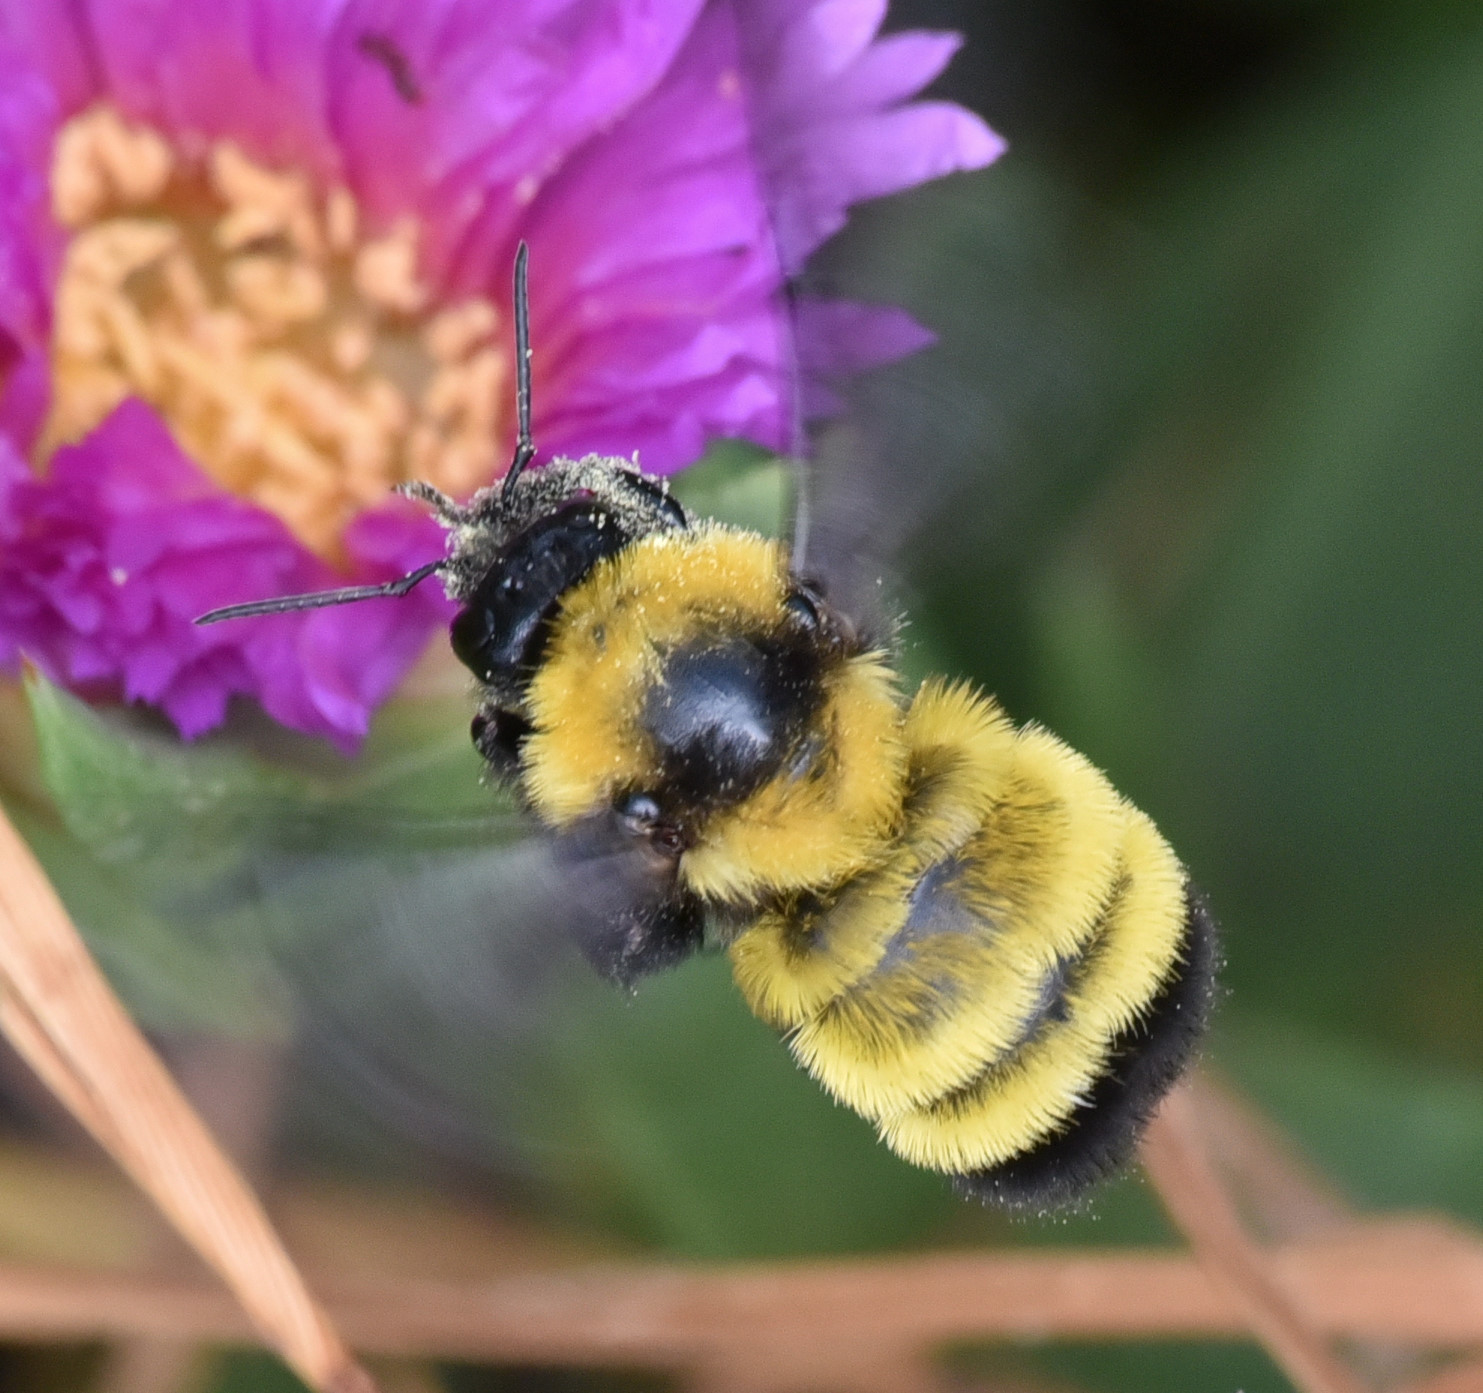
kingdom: Animalia
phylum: Arthropoda
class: Insecta
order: Hymenoptera
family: Apidae
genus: Bombus
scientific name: Bombus sonorus
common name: Sonoran bumble bee
